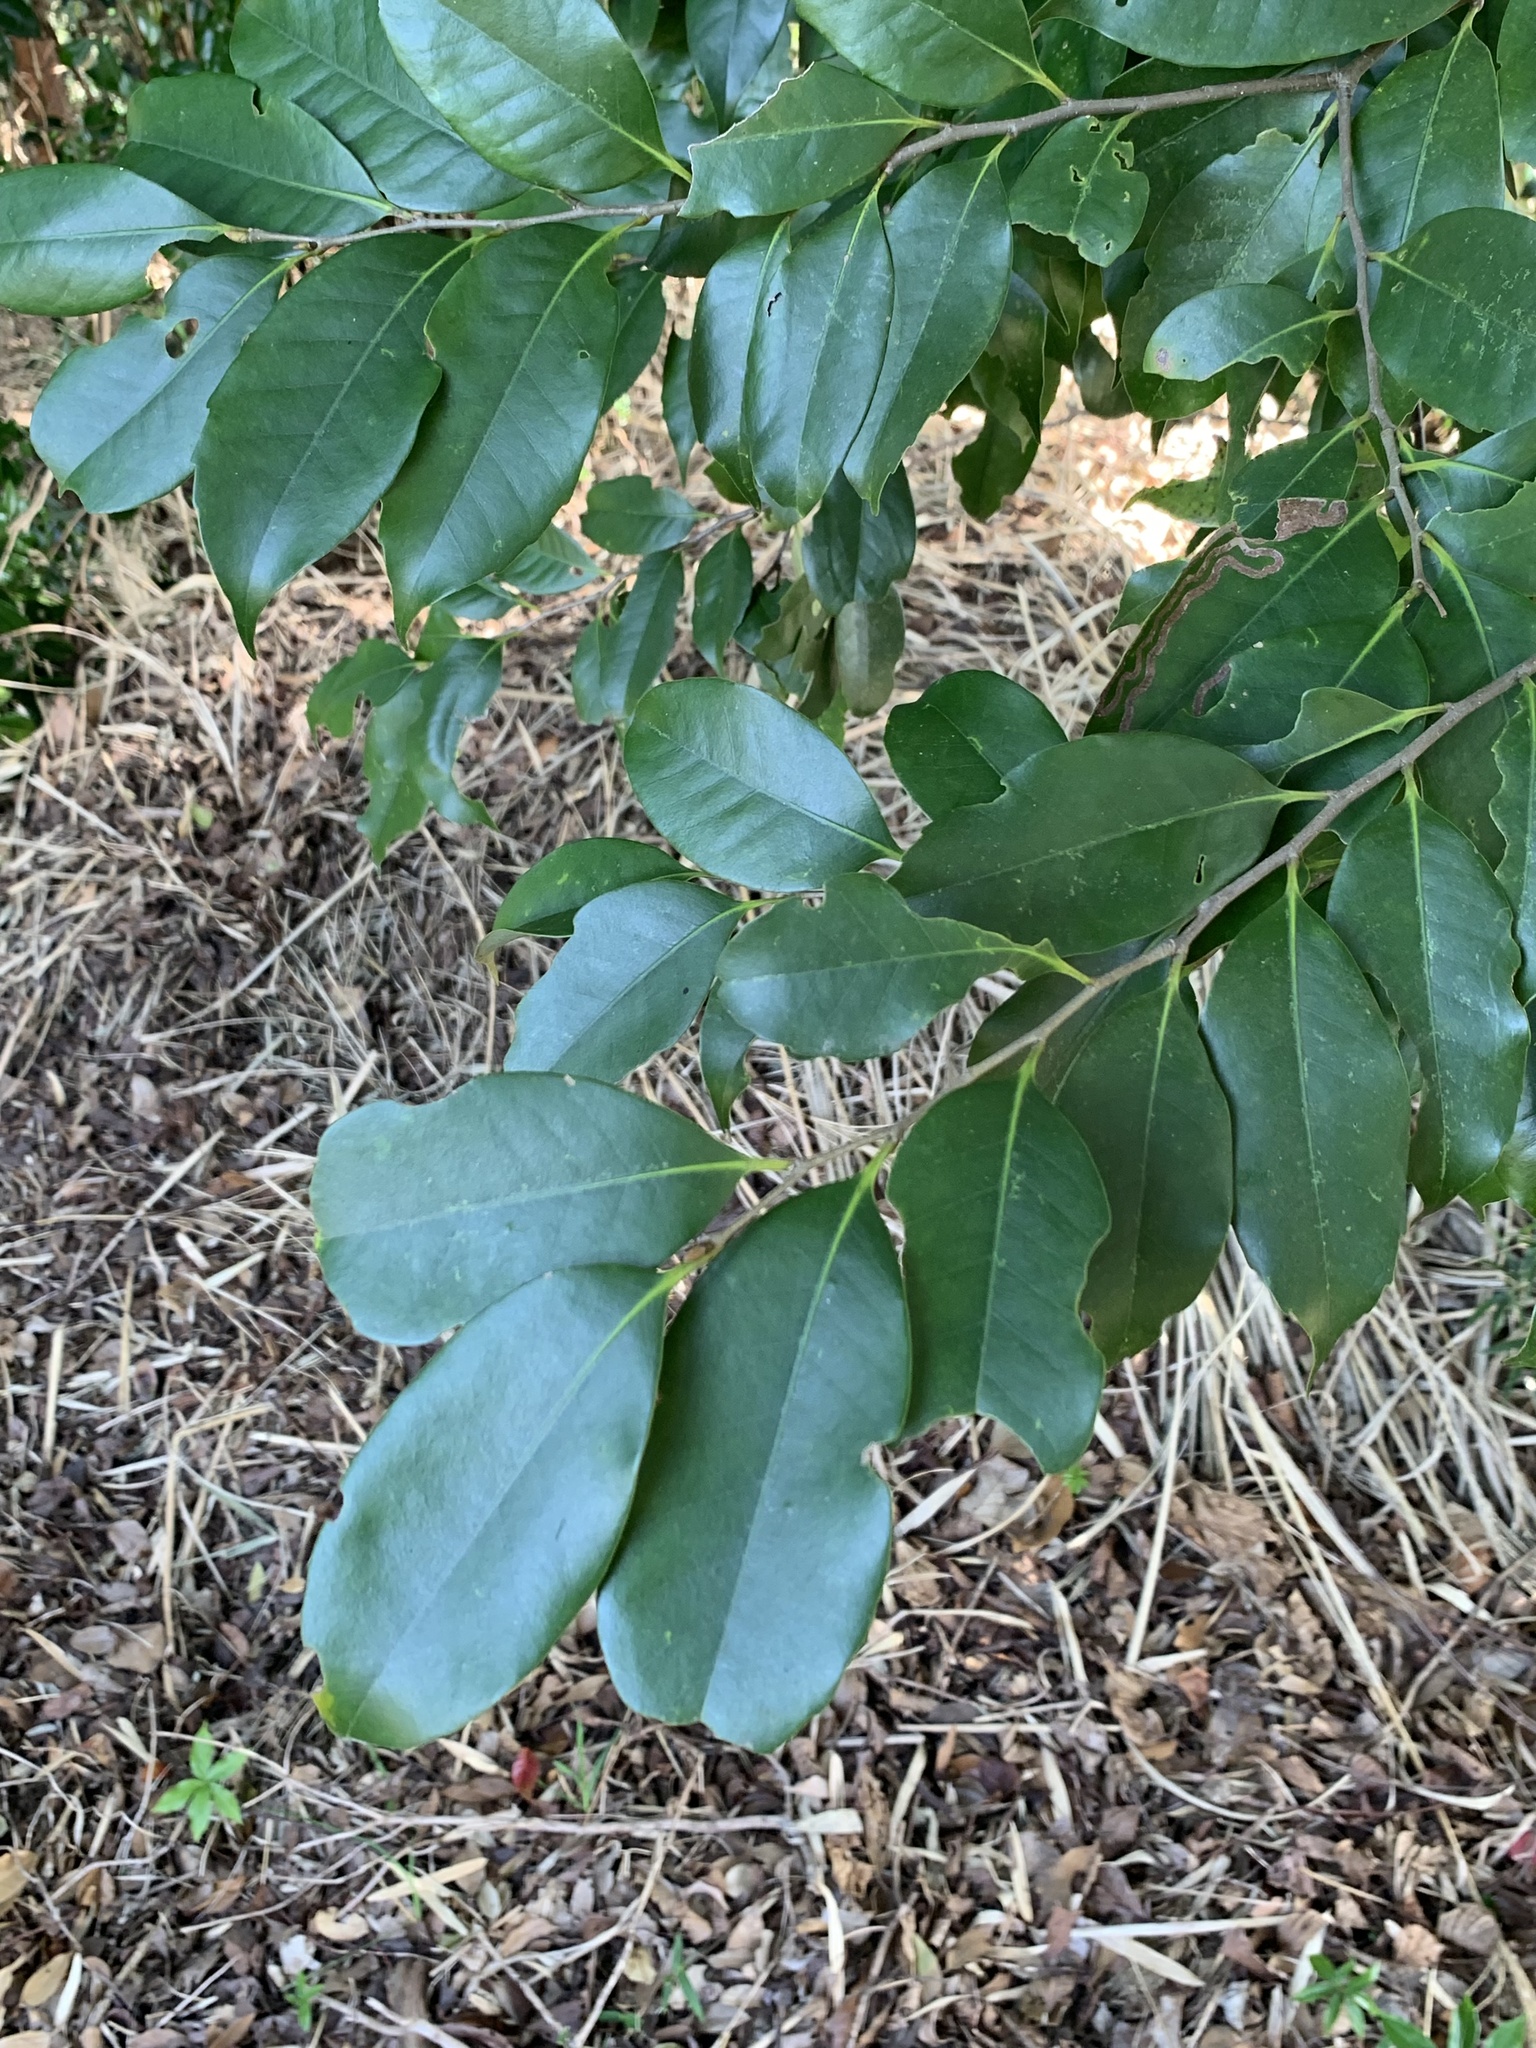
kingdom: Plantae
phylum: Tracheophyta
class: Magnoliopsida
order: Fagales
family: Fagaceae
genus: Castanopsis
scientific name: Castanopsis sieboldii
